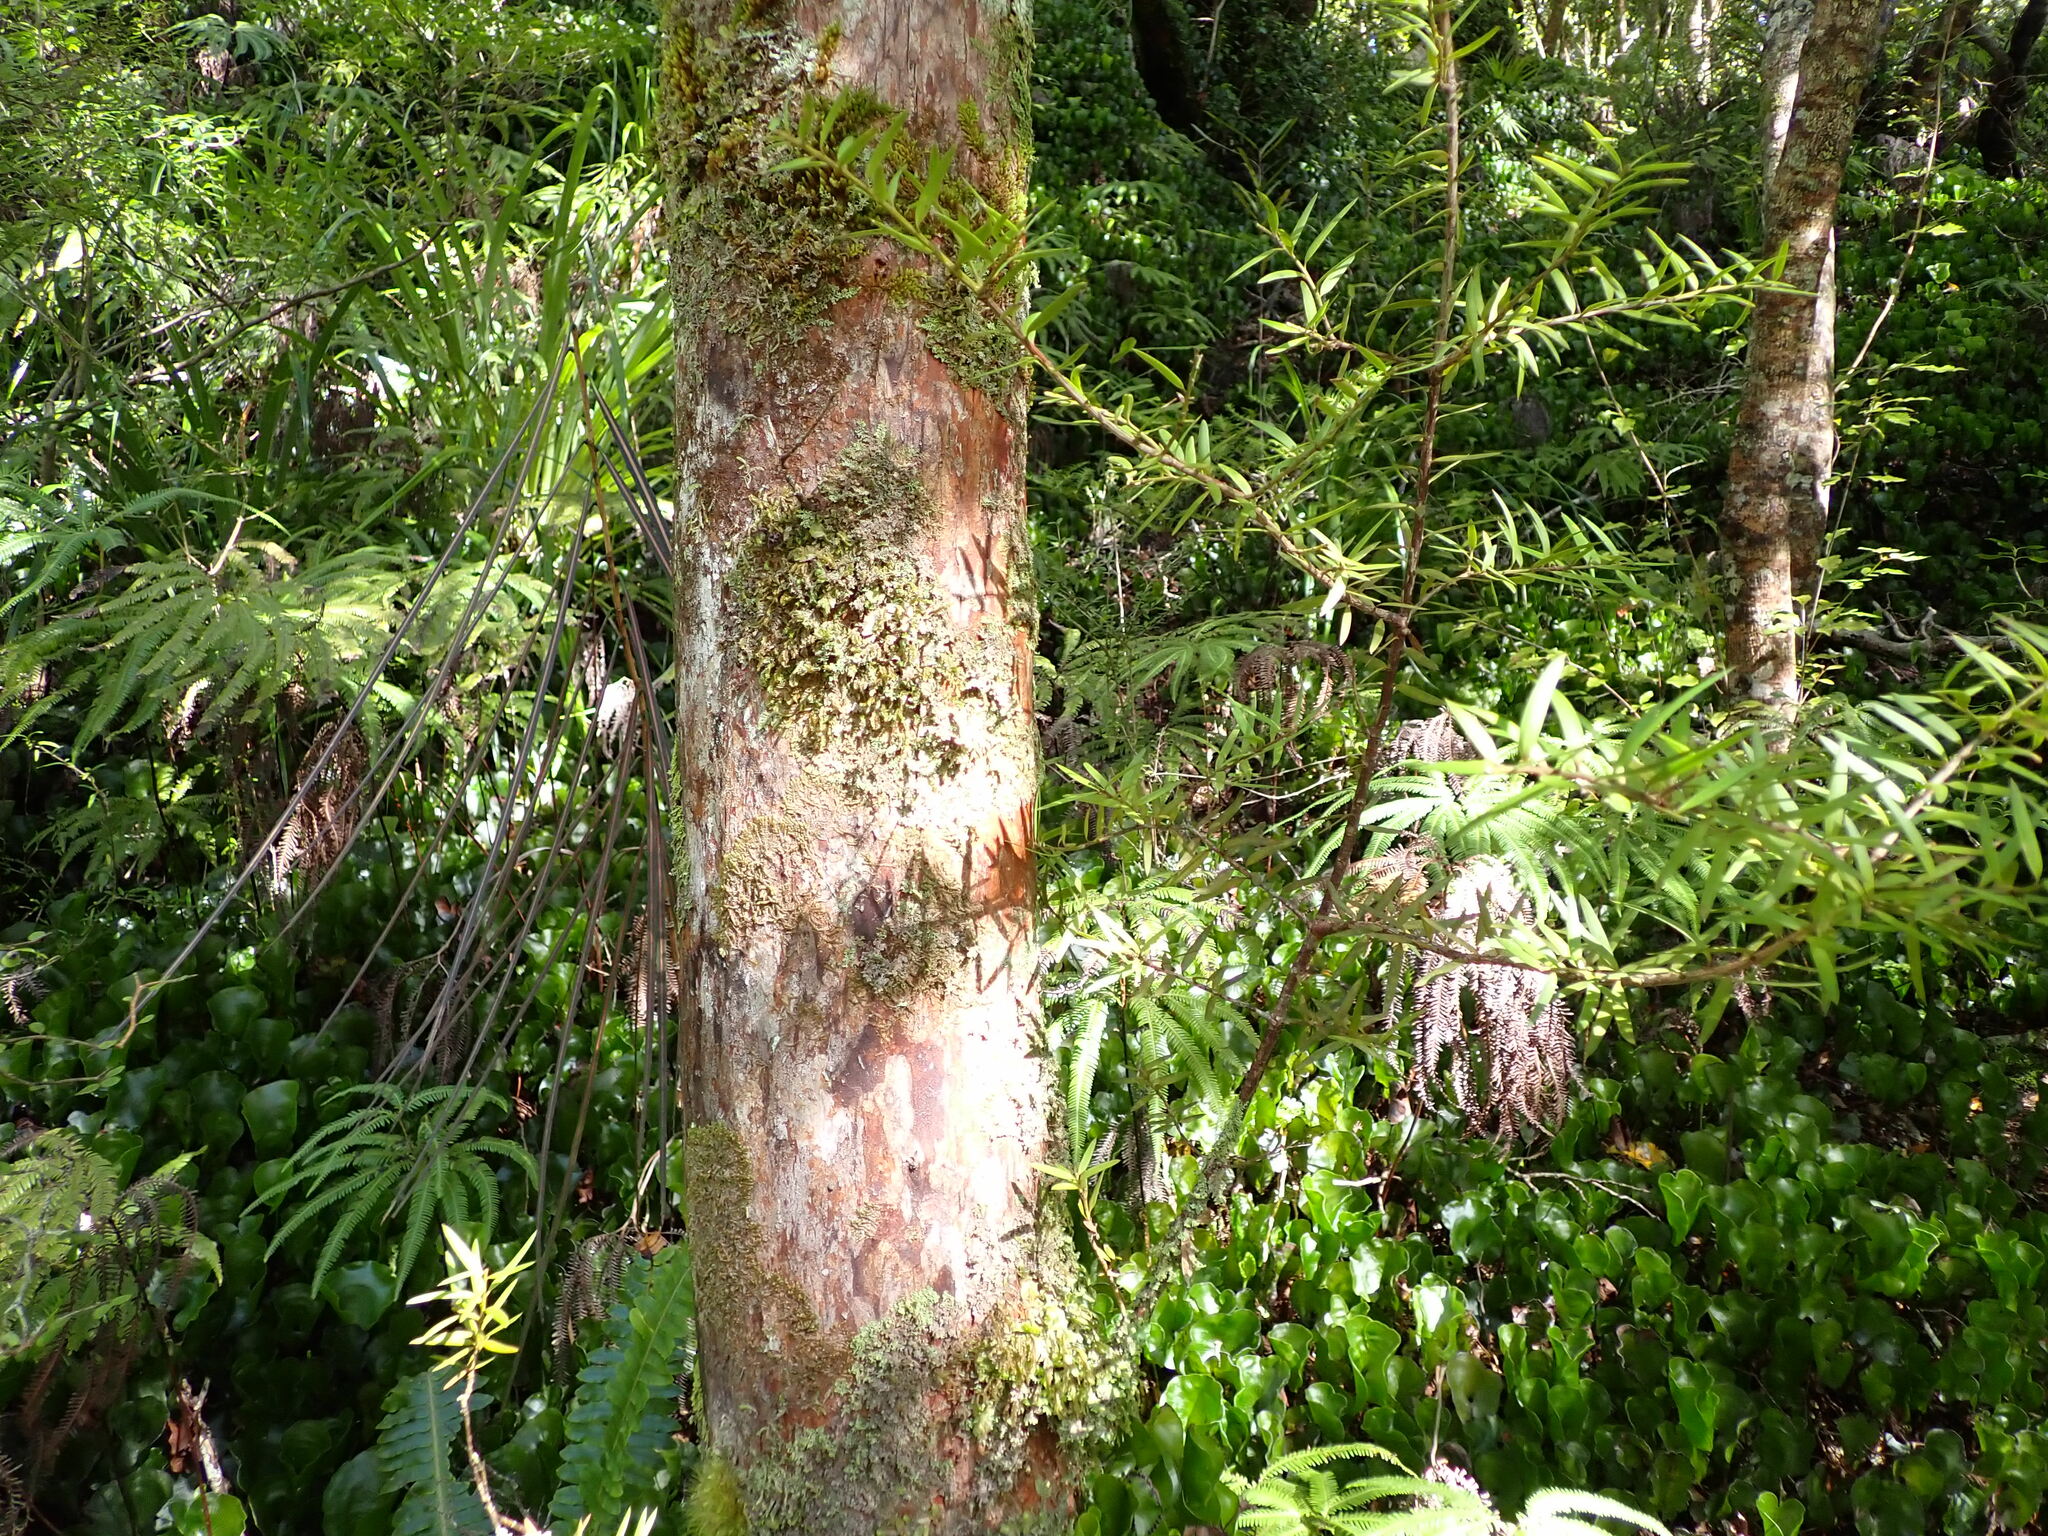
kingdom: Plantae
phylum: Tracheophyta
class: Pinopsida
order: Pinales
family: Podocarpaceae
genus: Podocarpus
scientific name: Podocarpus laetus
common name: Hall's totara
